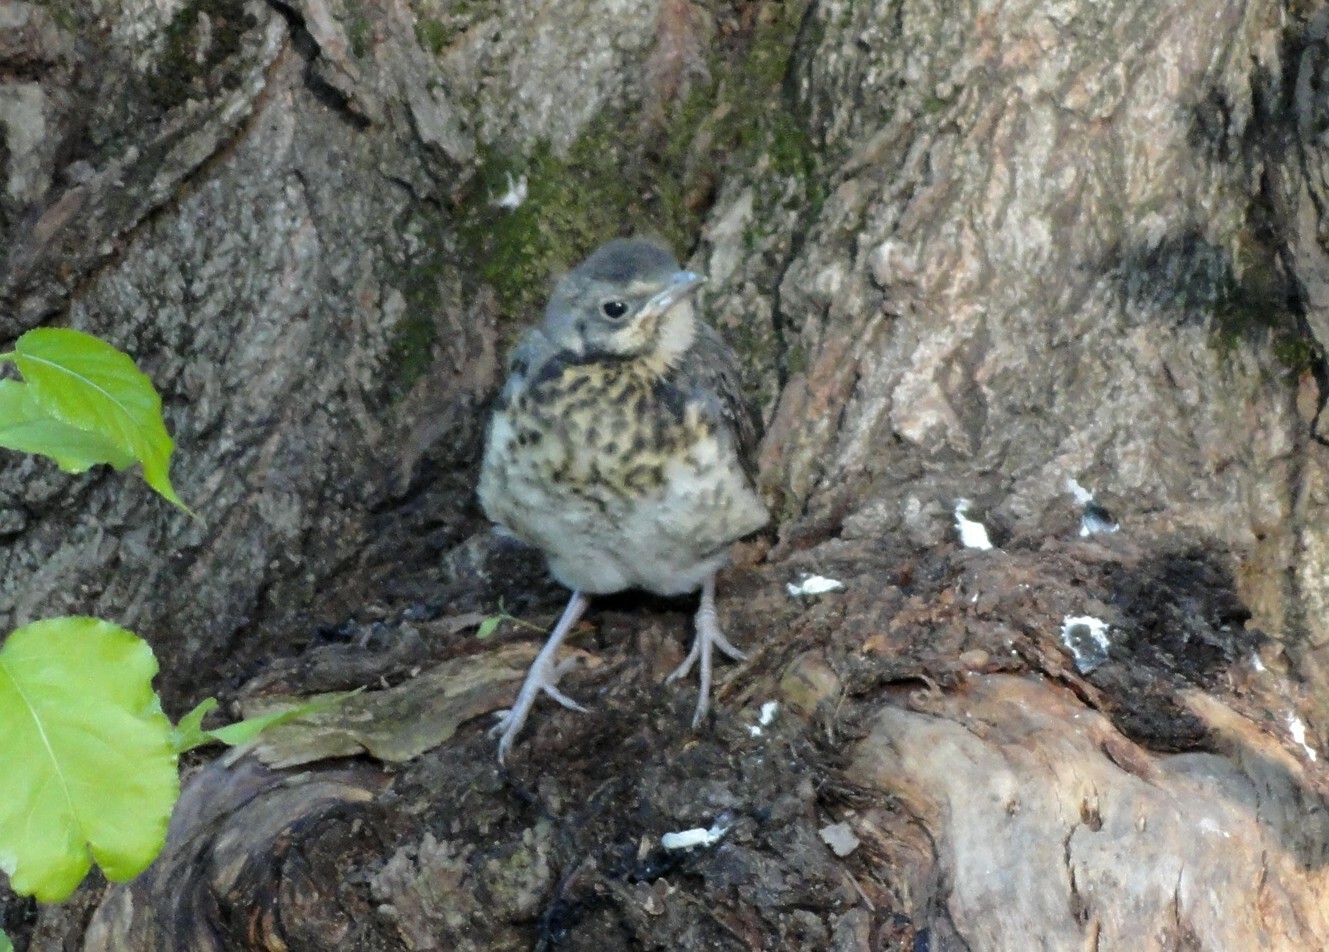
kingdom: Animalia
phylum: Chordata
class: Aves
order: Passeriformes
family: Turdidae
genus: Turdus
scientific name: Turdus pilaris
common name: Fieldfare
